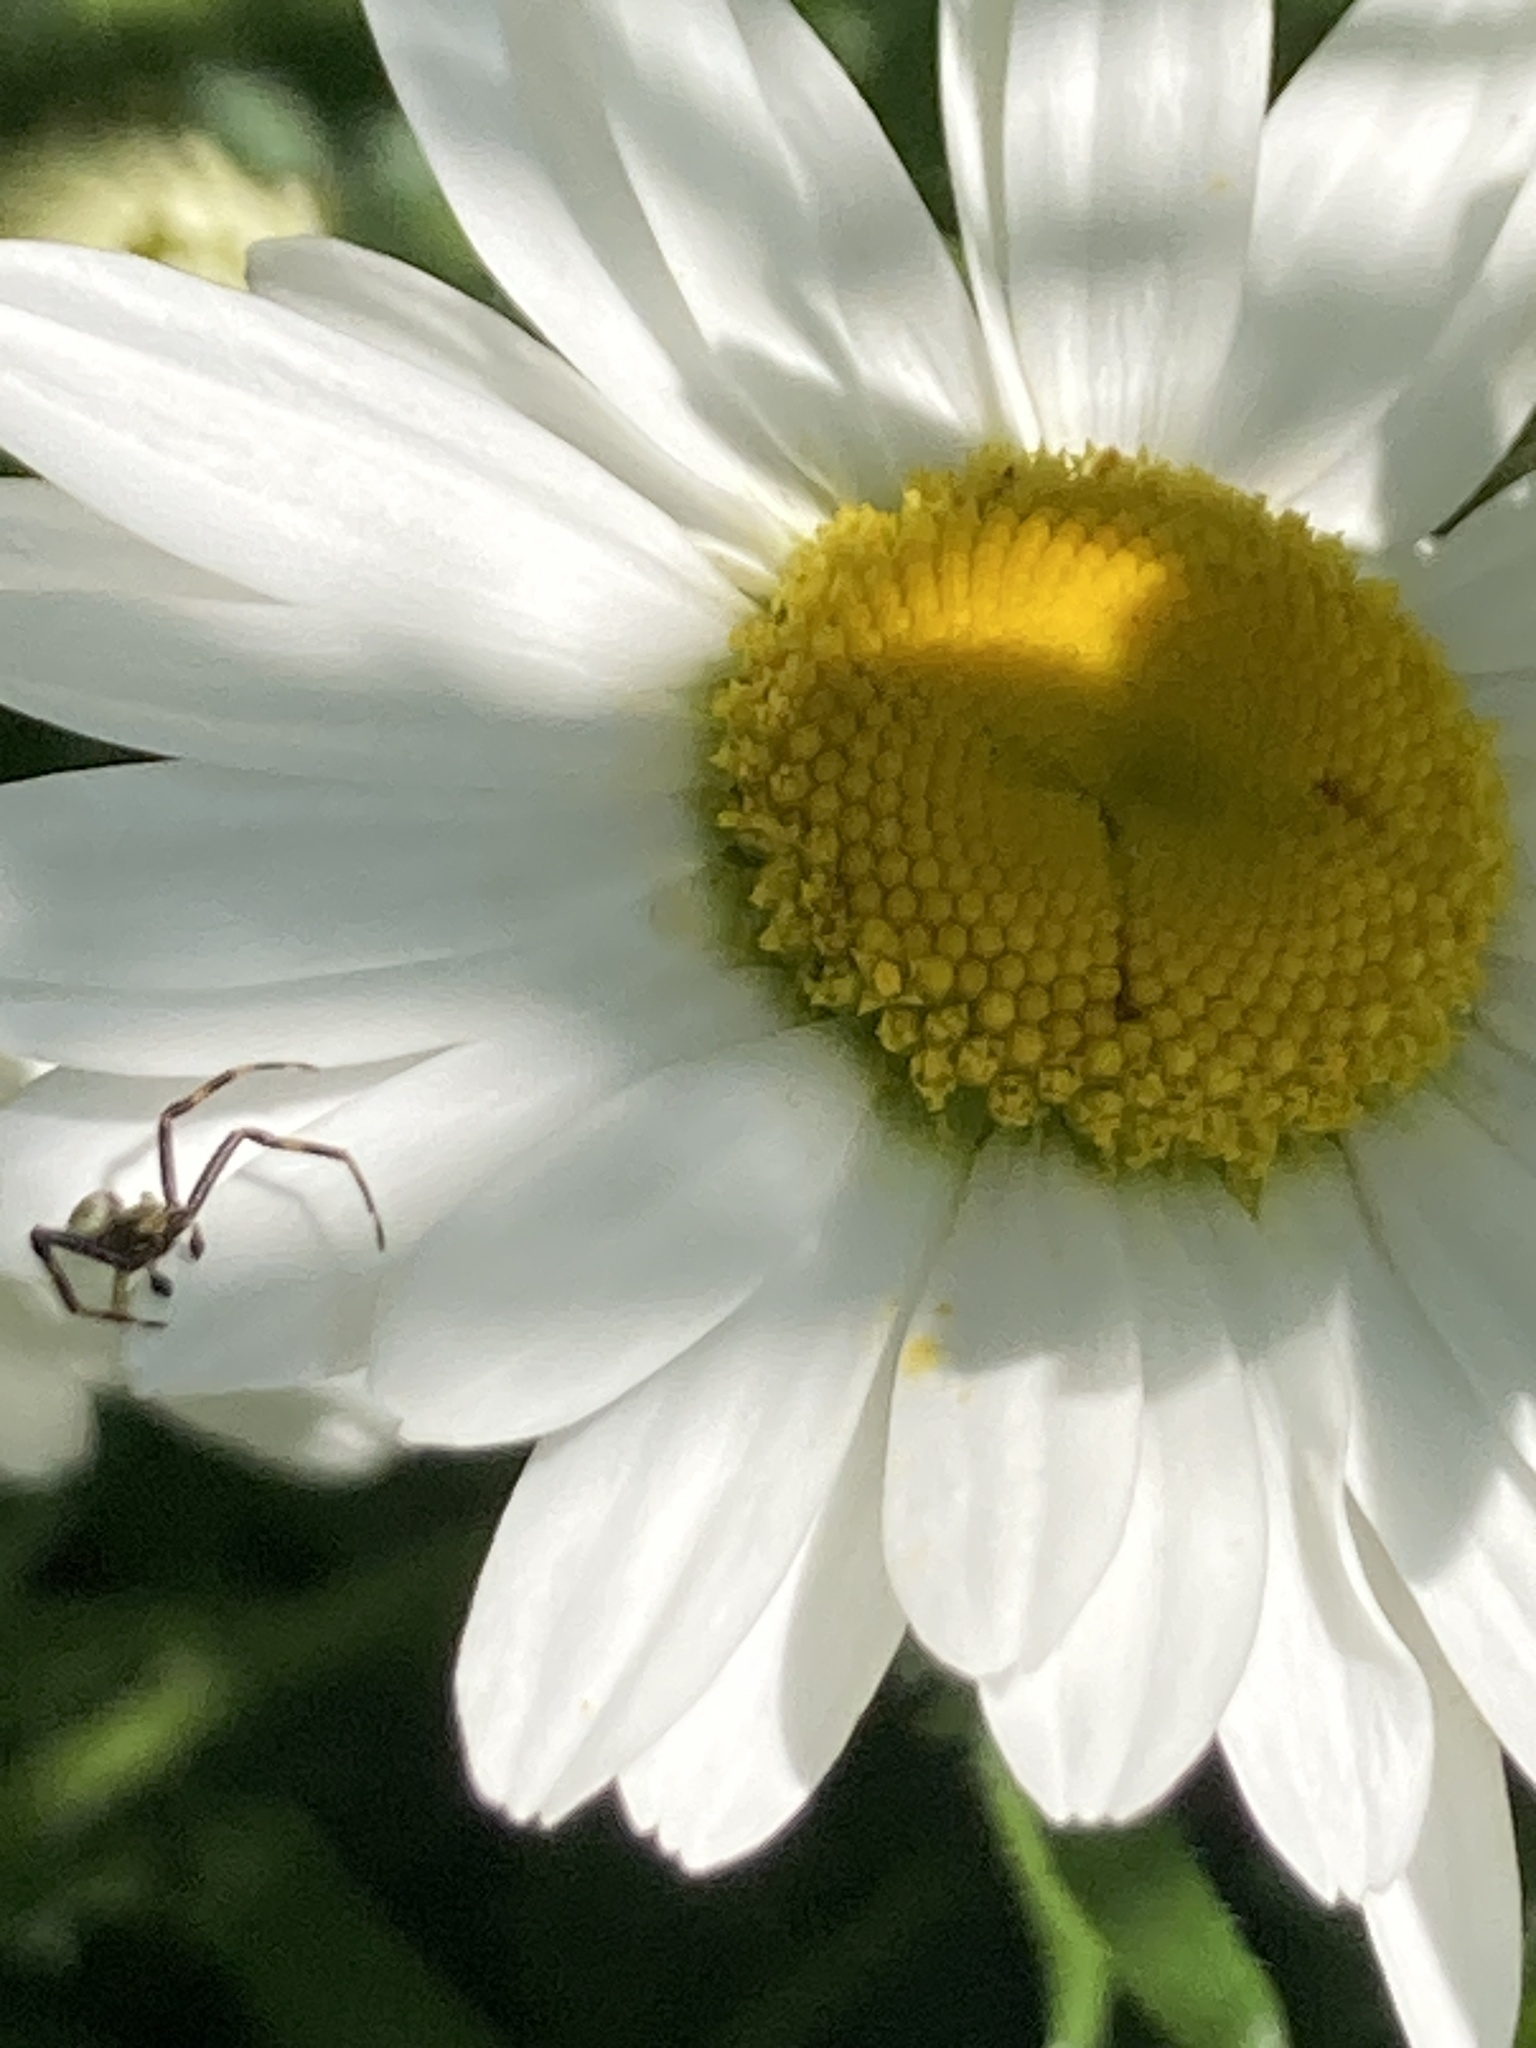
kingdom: Animalia
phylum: Arthropoda
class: Arachnida
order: Araneae
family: Thomisidae
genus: Misumena
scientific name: Misumena vatia
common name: Goldenrod crab spider
